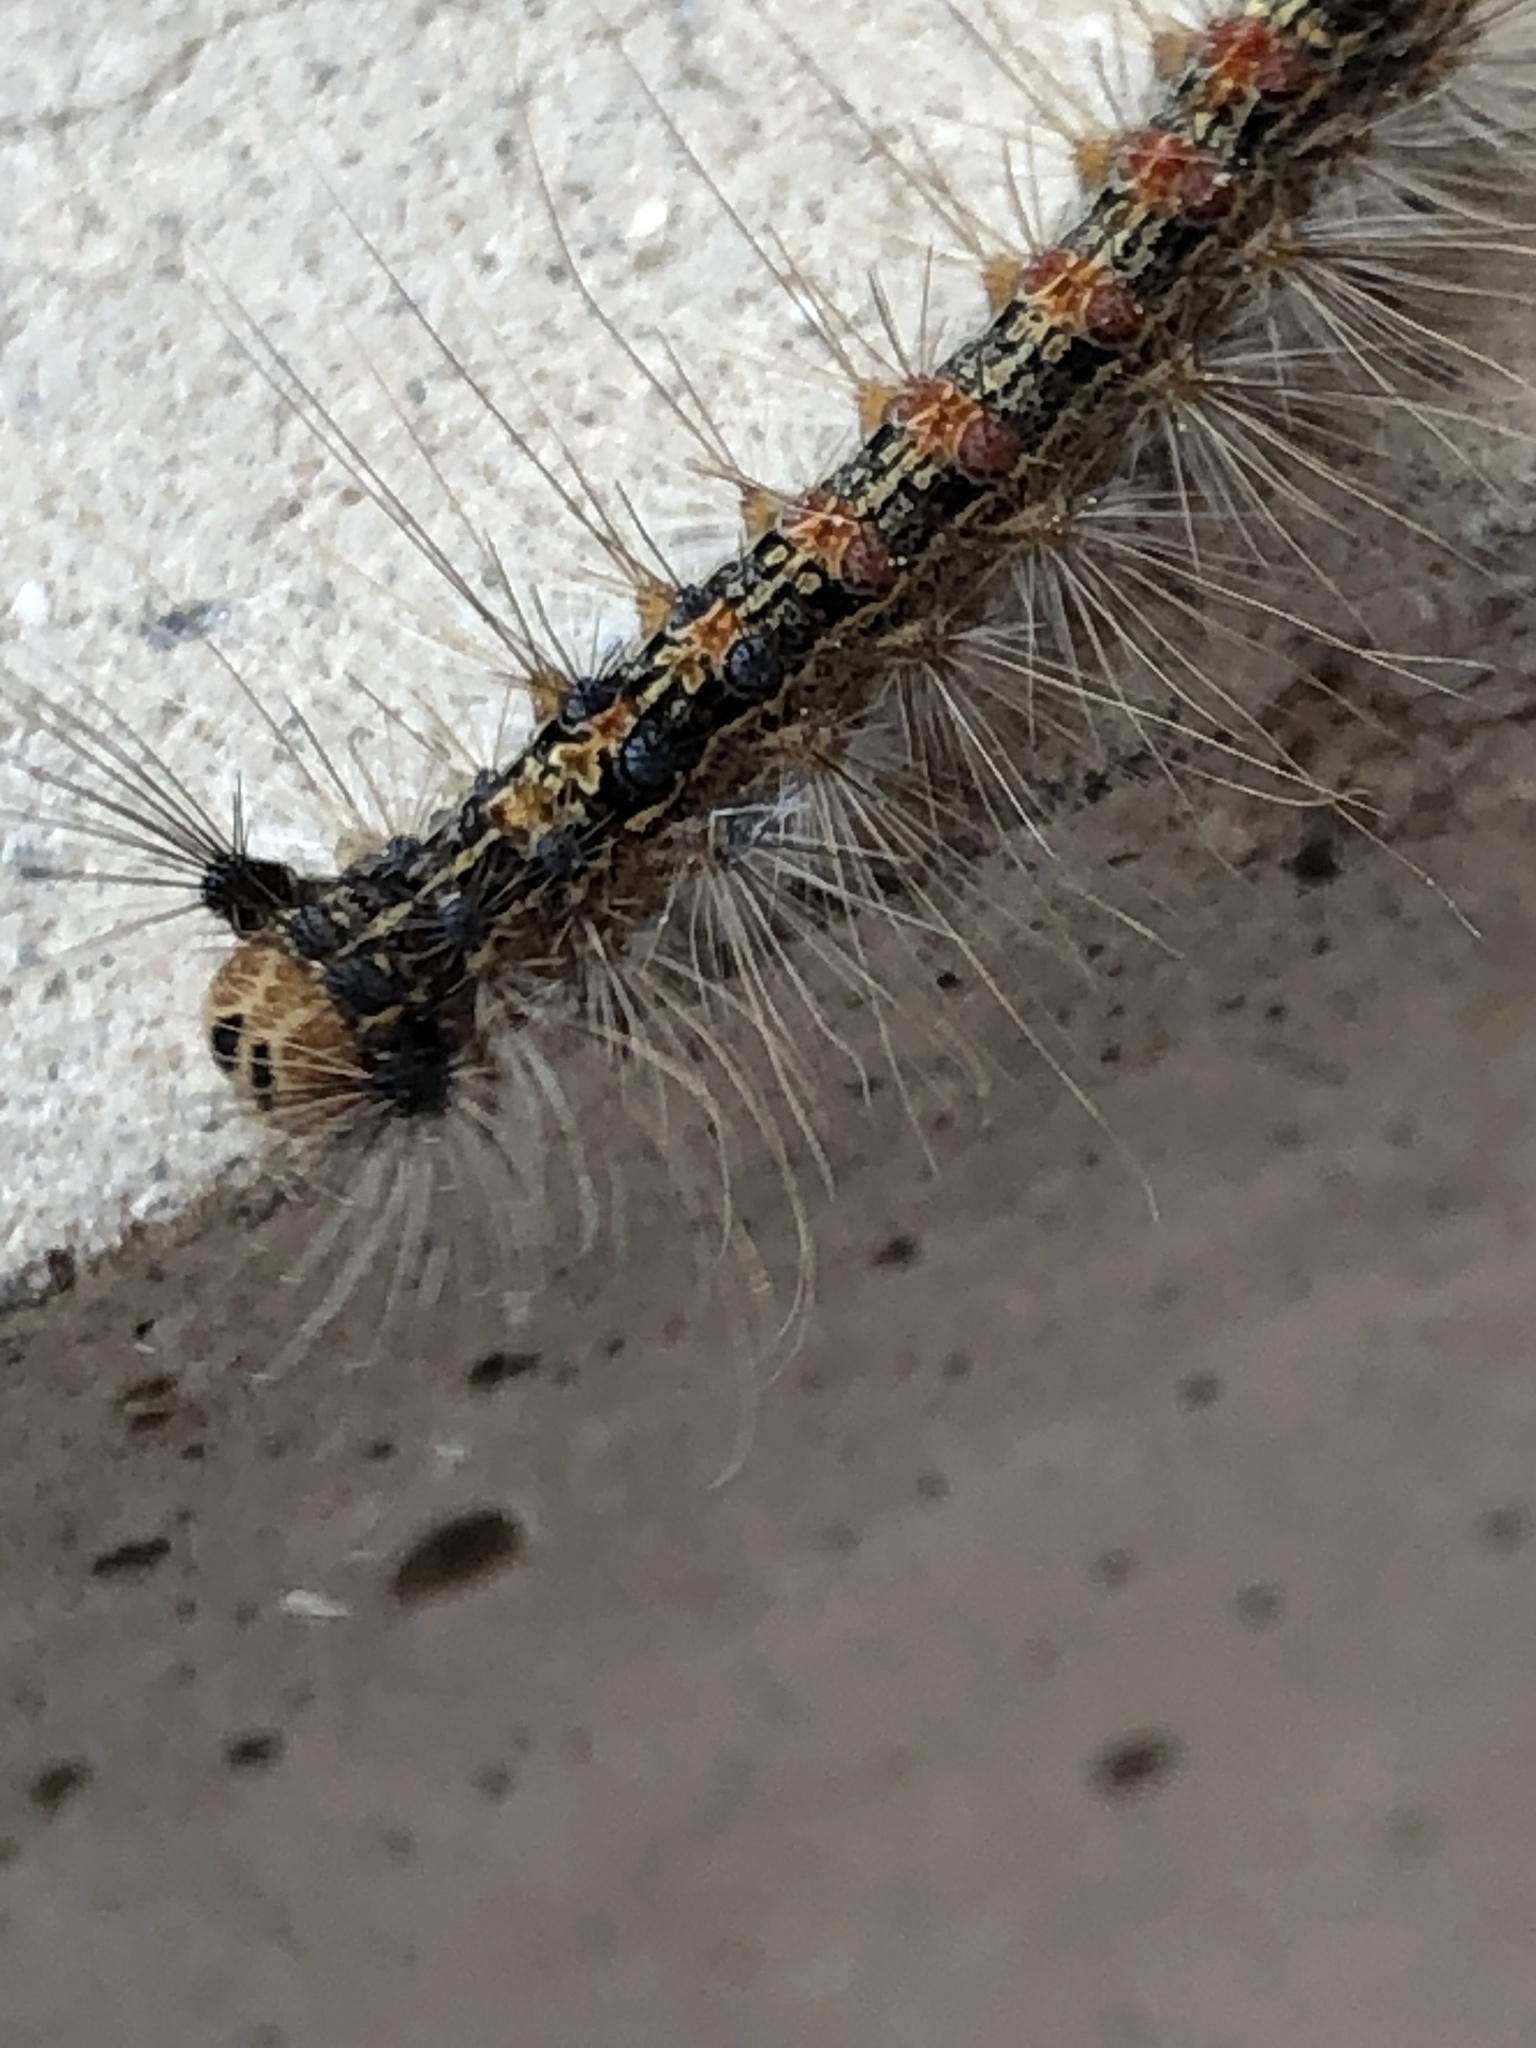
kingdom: Animalia
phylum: Arthropoda
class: Insecta
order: Lepidoptera
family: Erebidae
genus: Lymantria
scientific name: Lymantria dispar
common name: Gypsy moth
